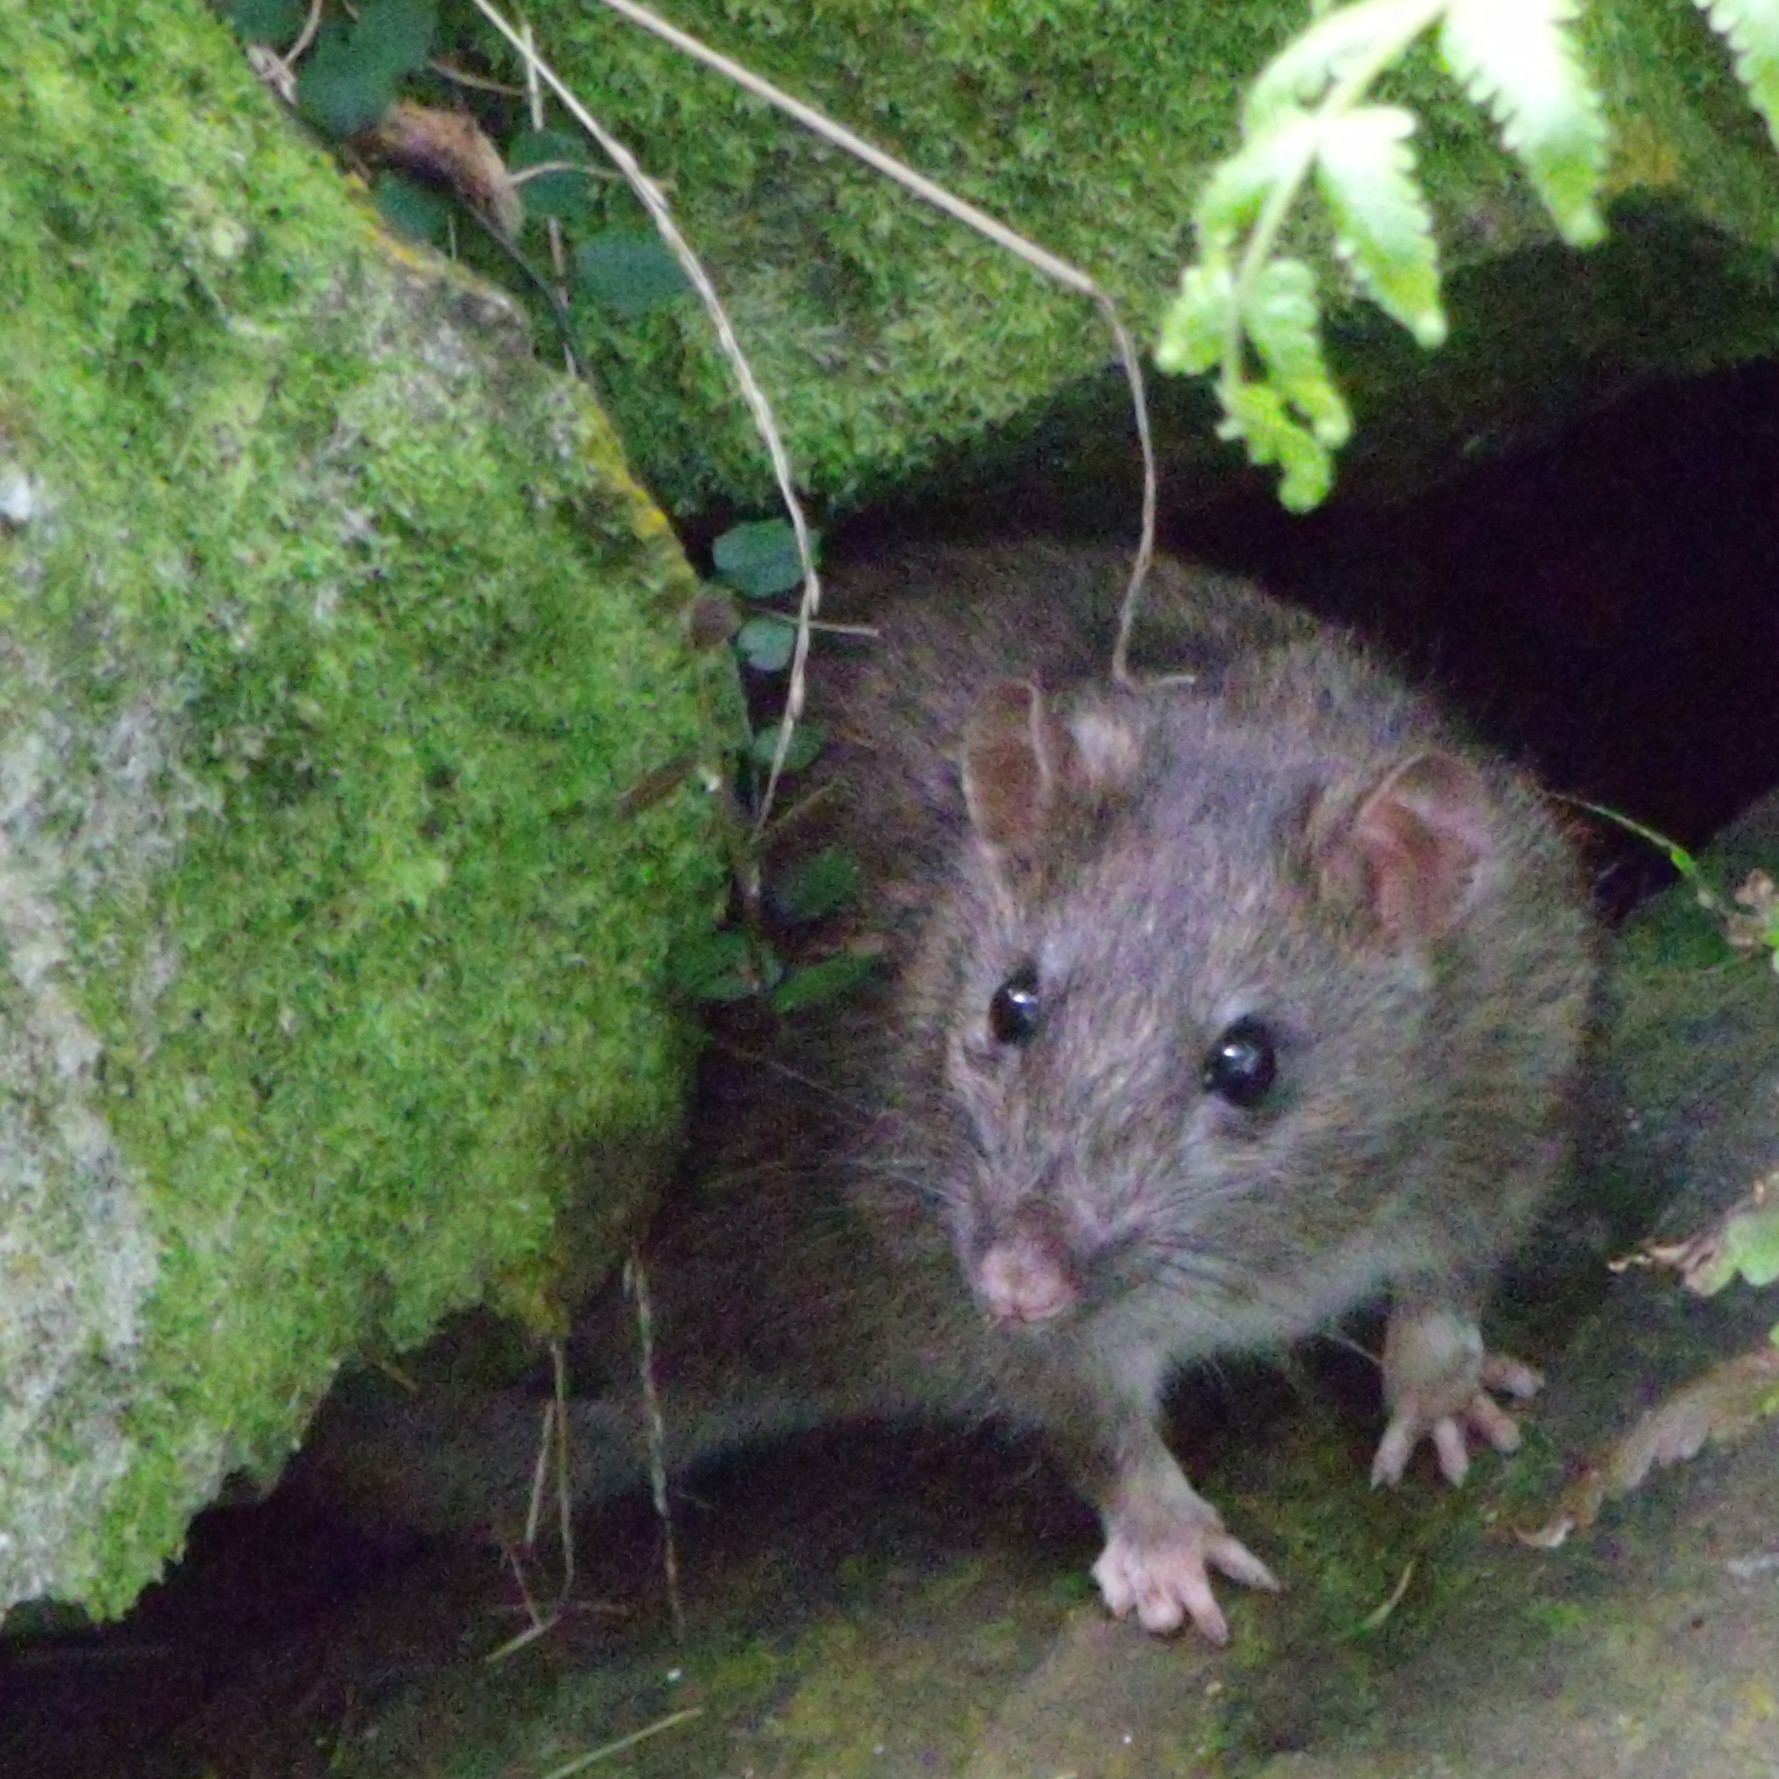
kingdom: Animalia
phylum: Chordata
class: Mammalia
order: Rodentia
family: Muridae
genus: Rattus
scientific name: Rattus norvegicus
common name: Brown rat
